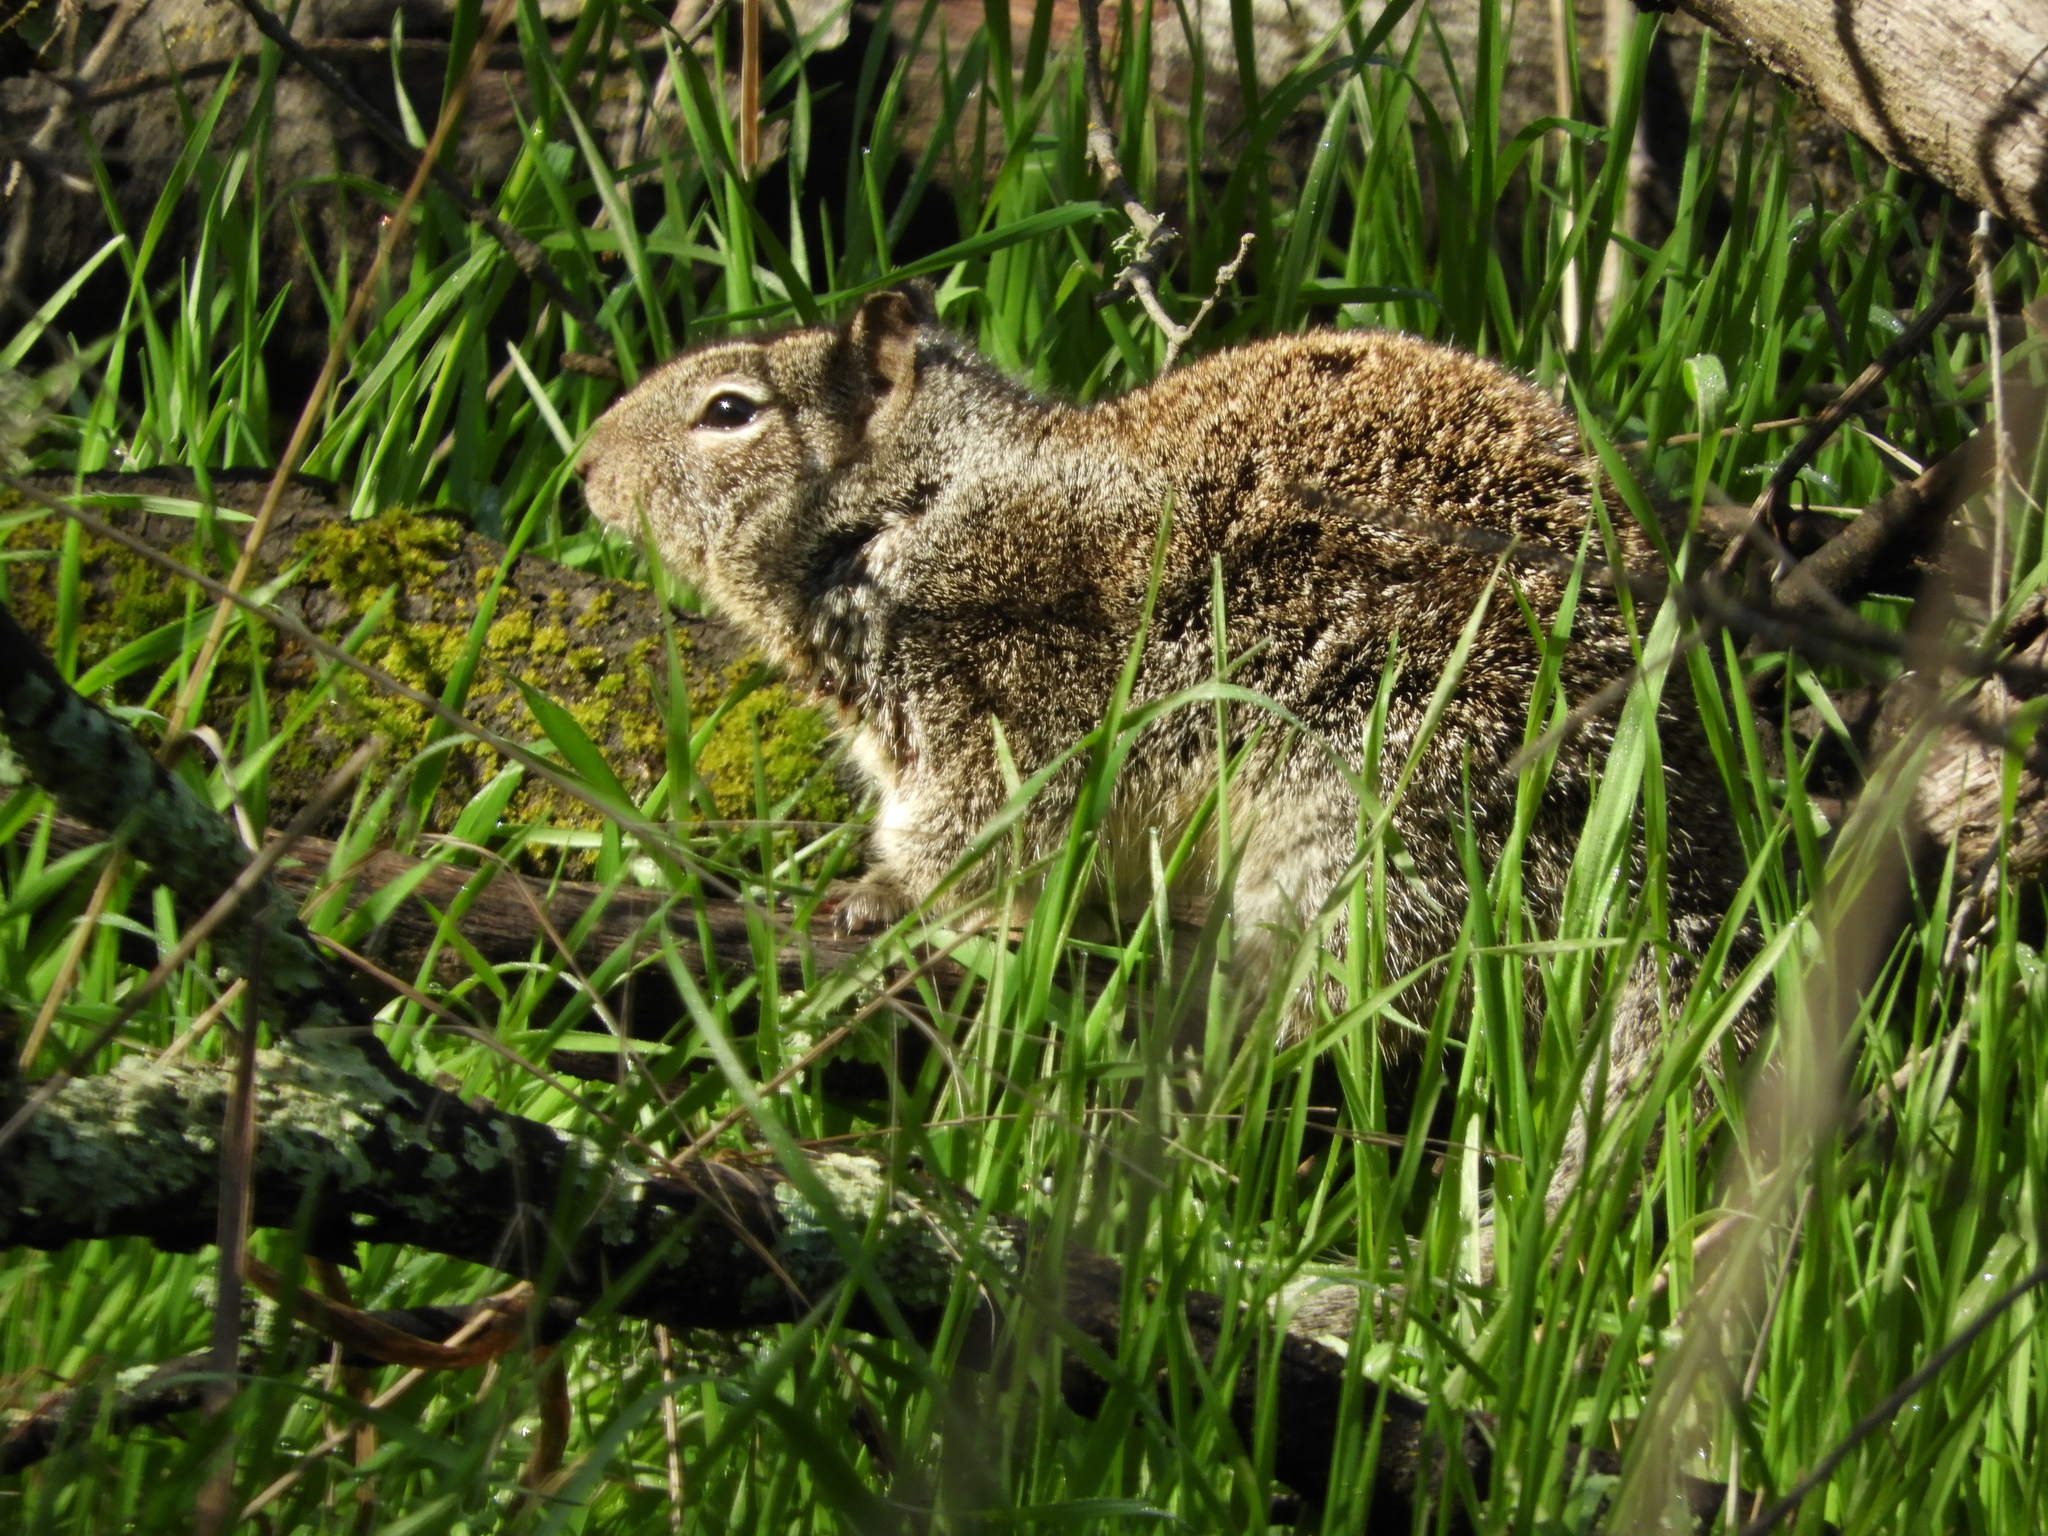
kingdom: Animalia
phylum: Chordata
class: Mammalia
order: Rodentia
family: Sciuridae
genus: Otospermophilus
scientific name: Otospermophilus beecheyi
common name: California ground squirrel
